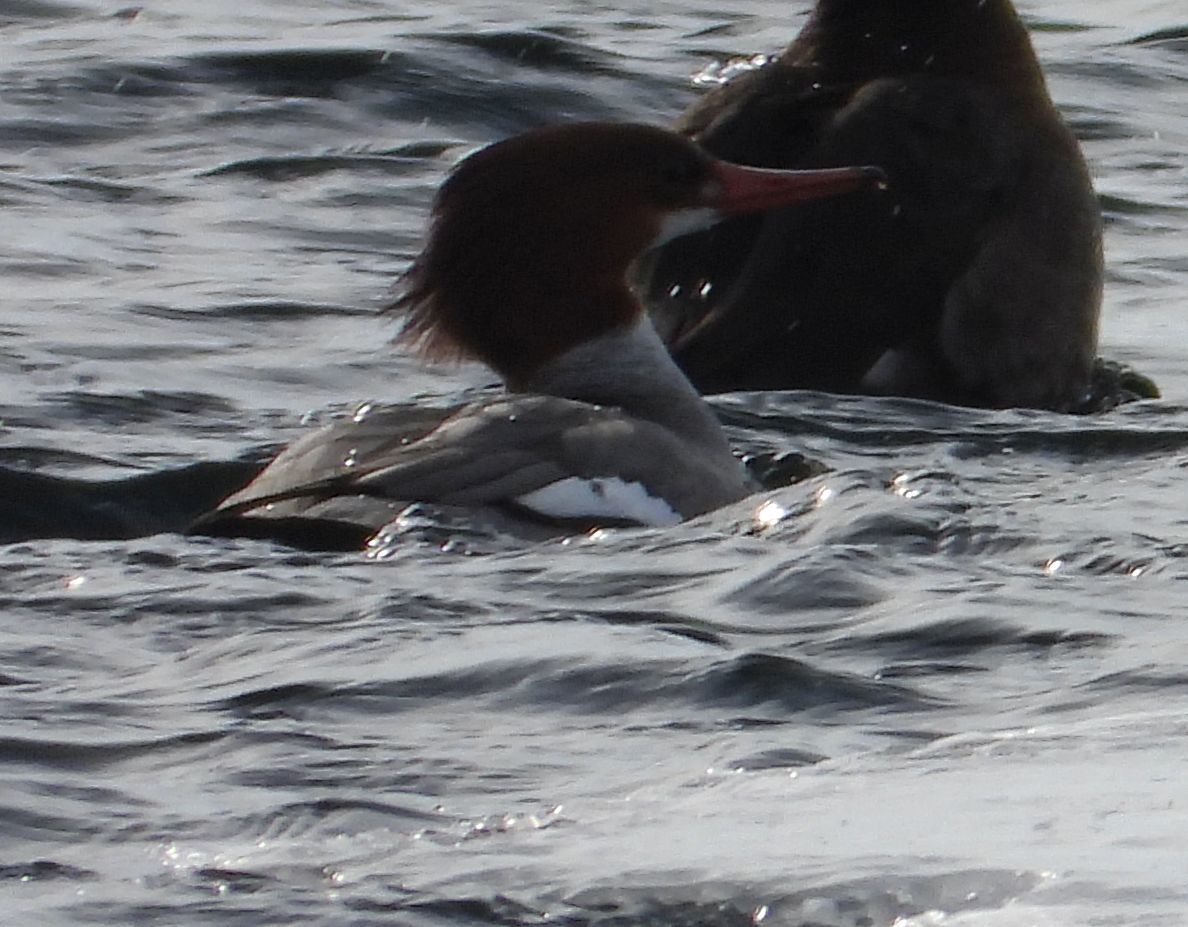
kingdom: Animalia
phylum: Chordata
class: Aves
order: Anseriformes
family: Anatidae
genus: Mergus
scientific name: Mergus merganser
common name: Common merganser
